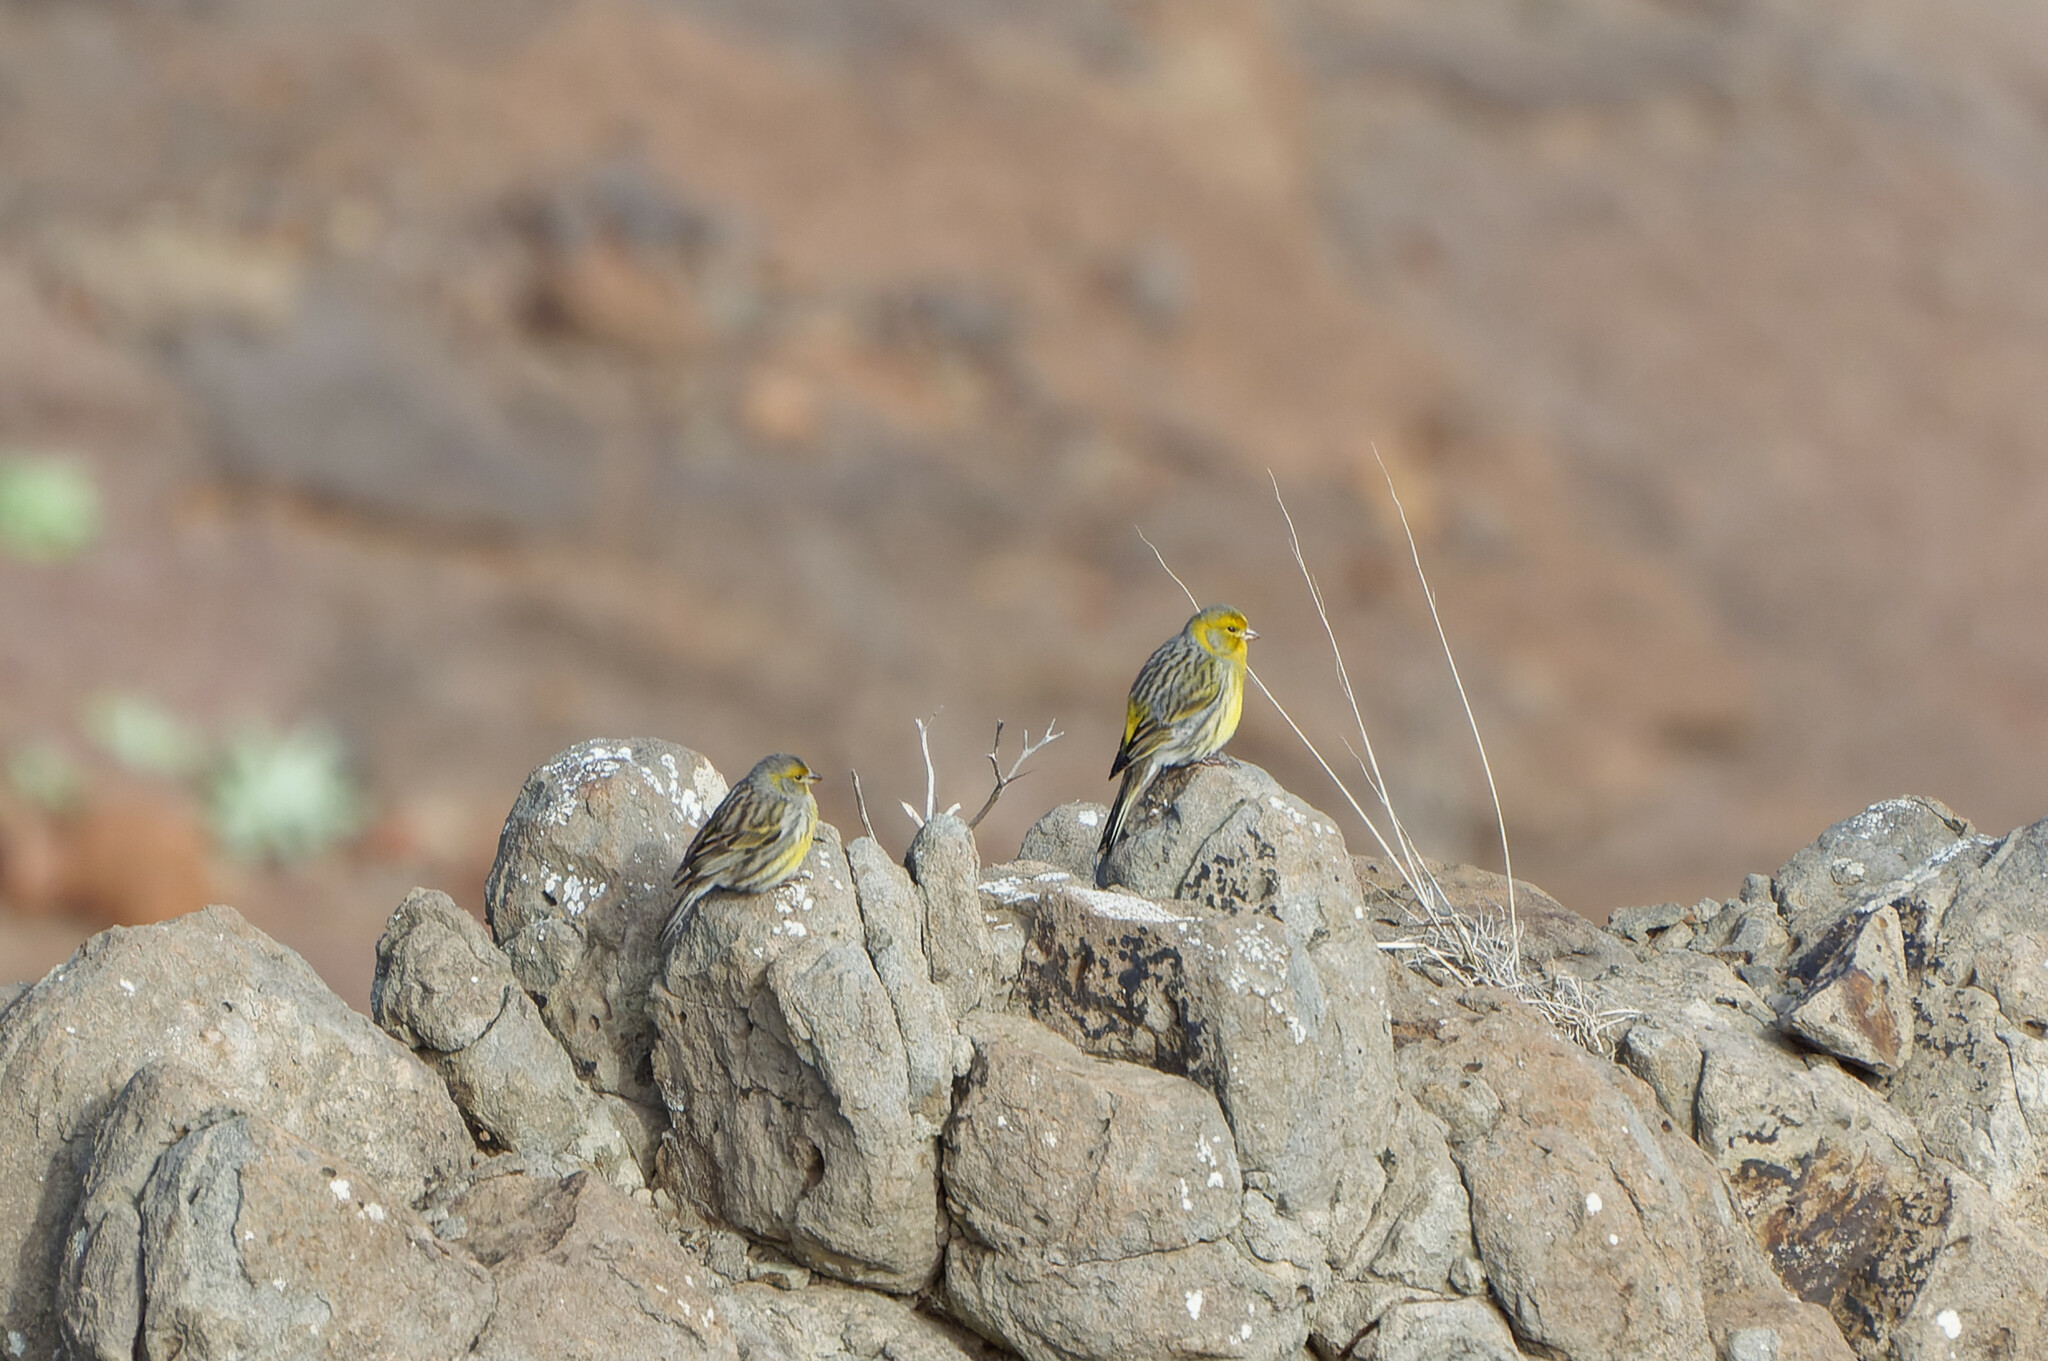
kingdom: Animalia
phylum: Chordata
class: Aves
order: Passeriformes
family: Fringillidae
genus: Serinus
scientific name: Serinus canaria
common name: Atlantic canary
